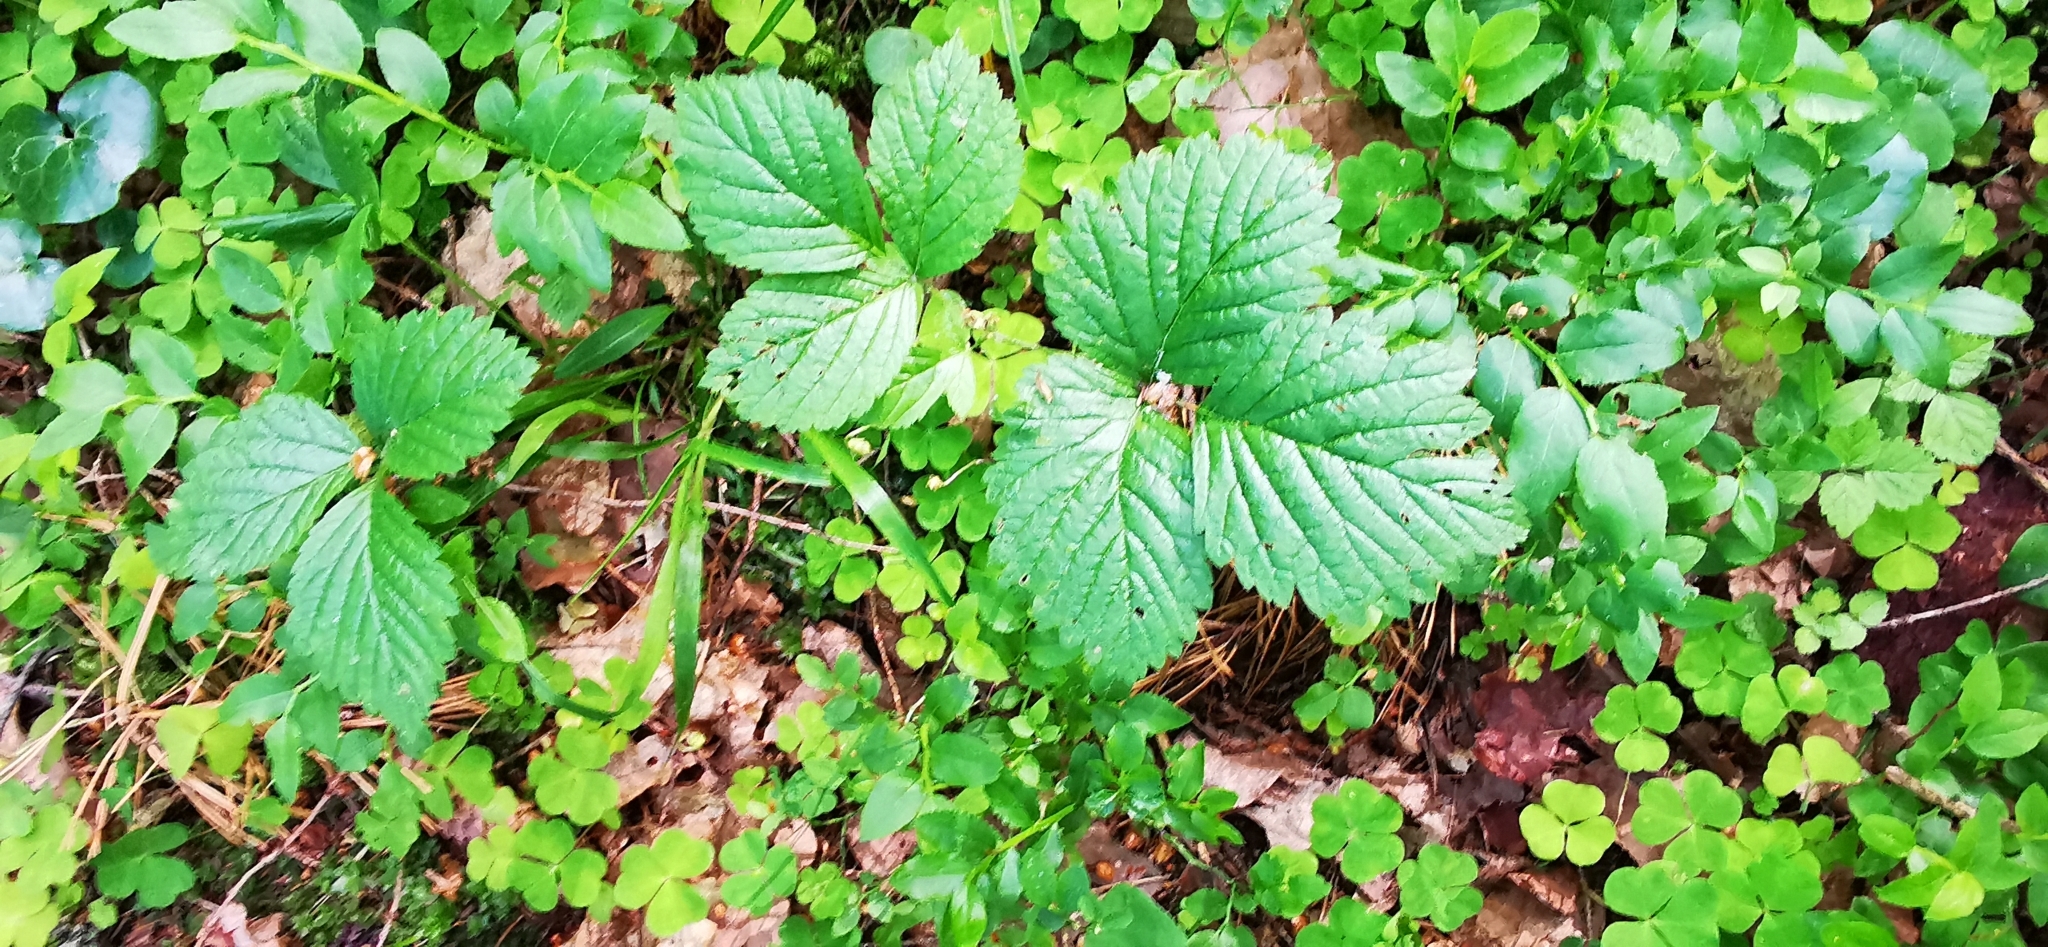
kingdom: Plantae
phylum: Tracheophyta
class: Magnoliopsida
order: Rosales
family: Rosaceae
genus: Rubus
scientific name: Rubus saxatilis
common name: Stone bramble
